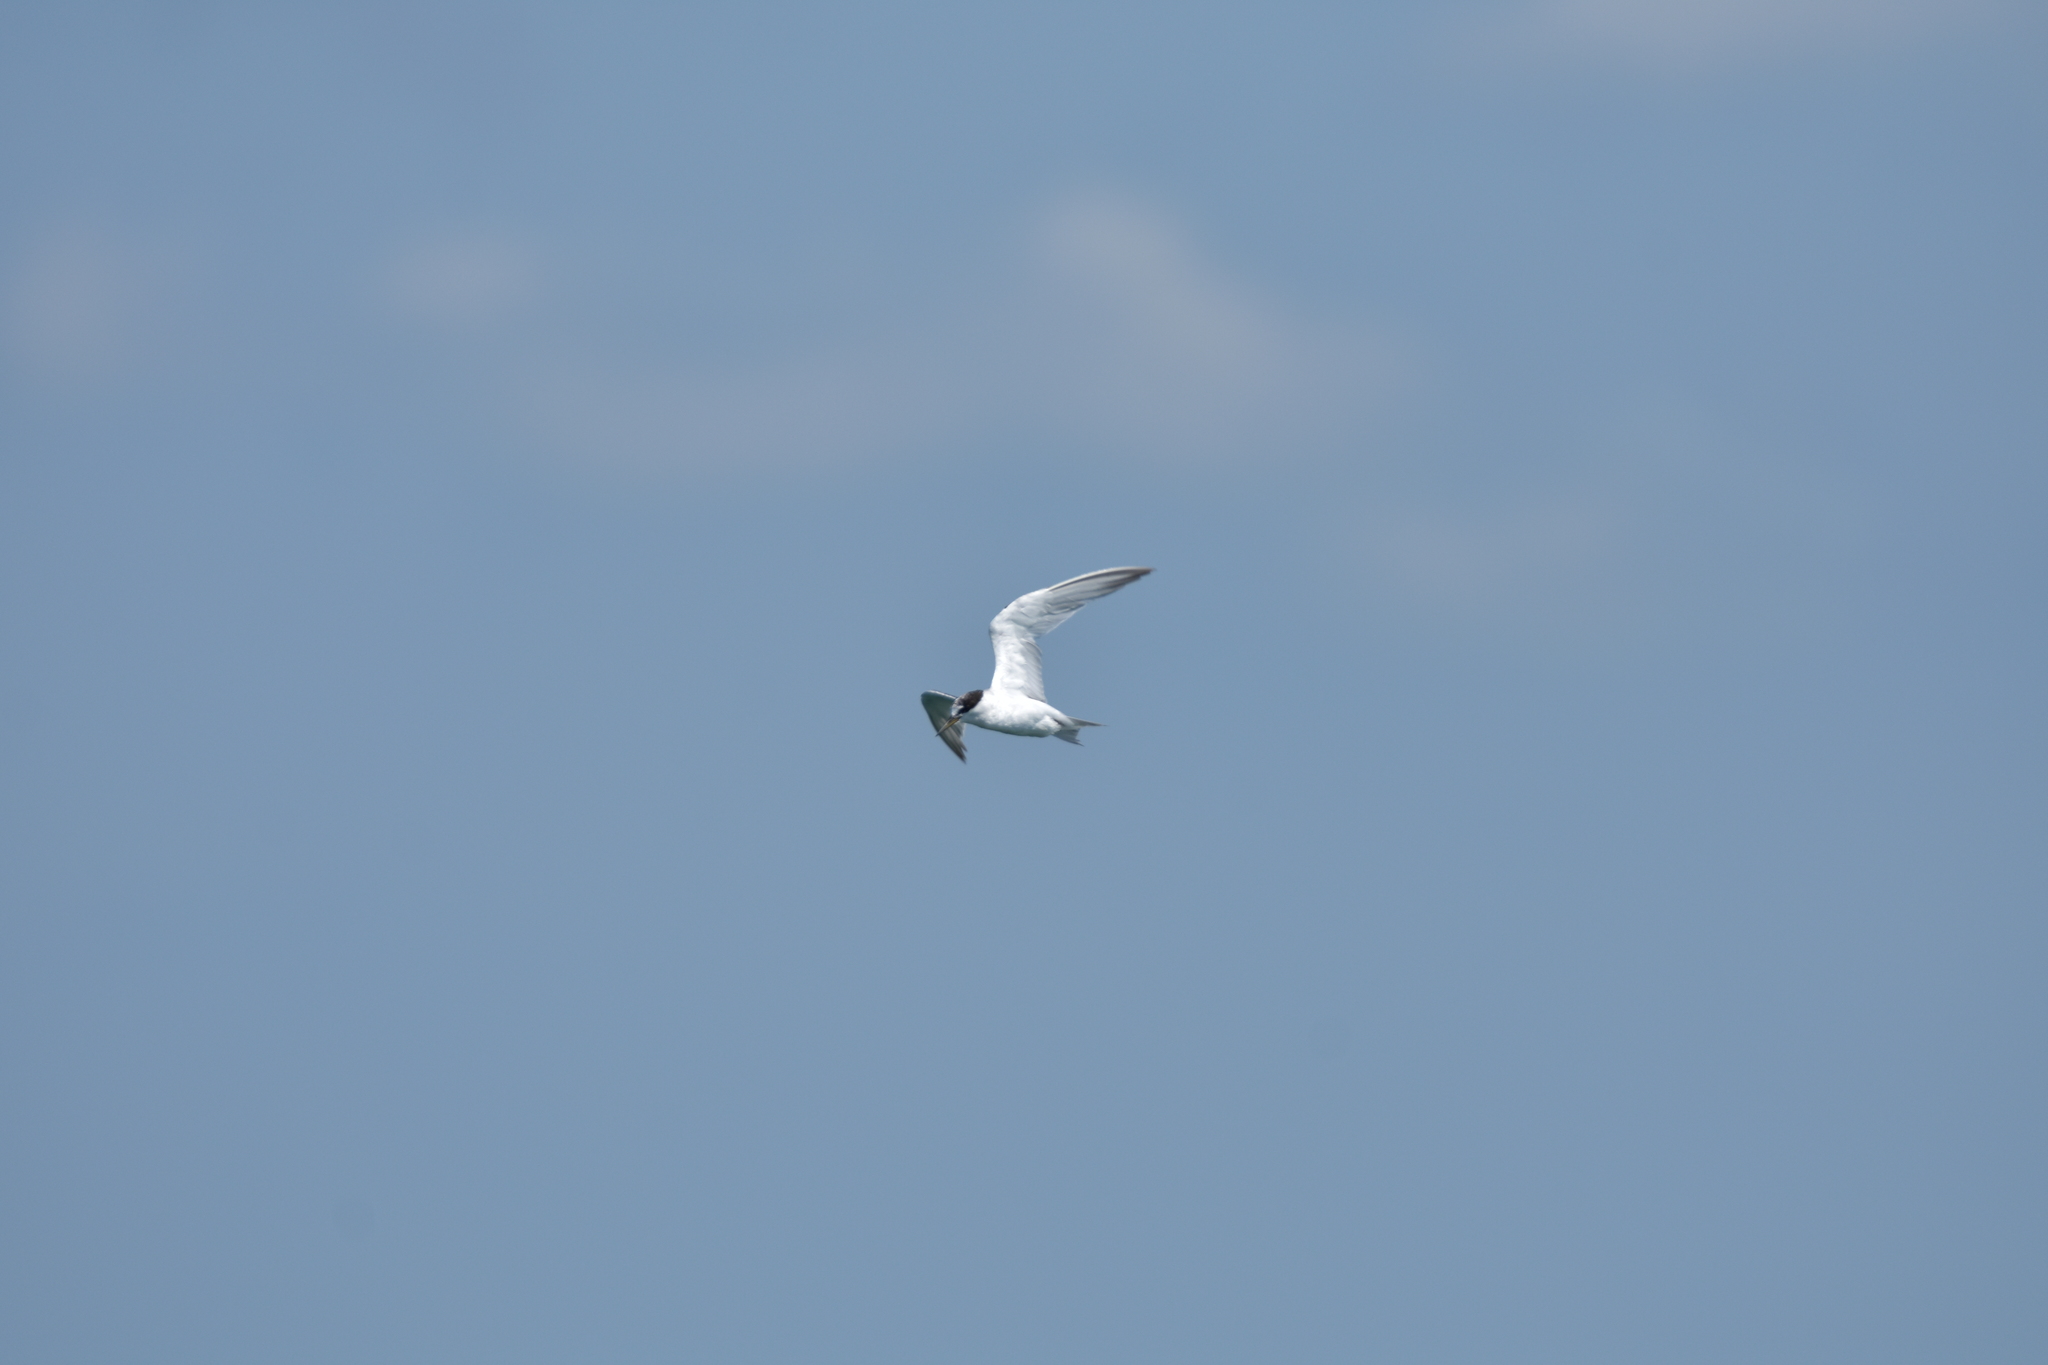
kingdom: Animalia
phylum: Chordata
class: Aves
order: Charadriiformes
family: Laridae
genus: Sternula
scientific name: Sternula antillarum
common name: Least tern
